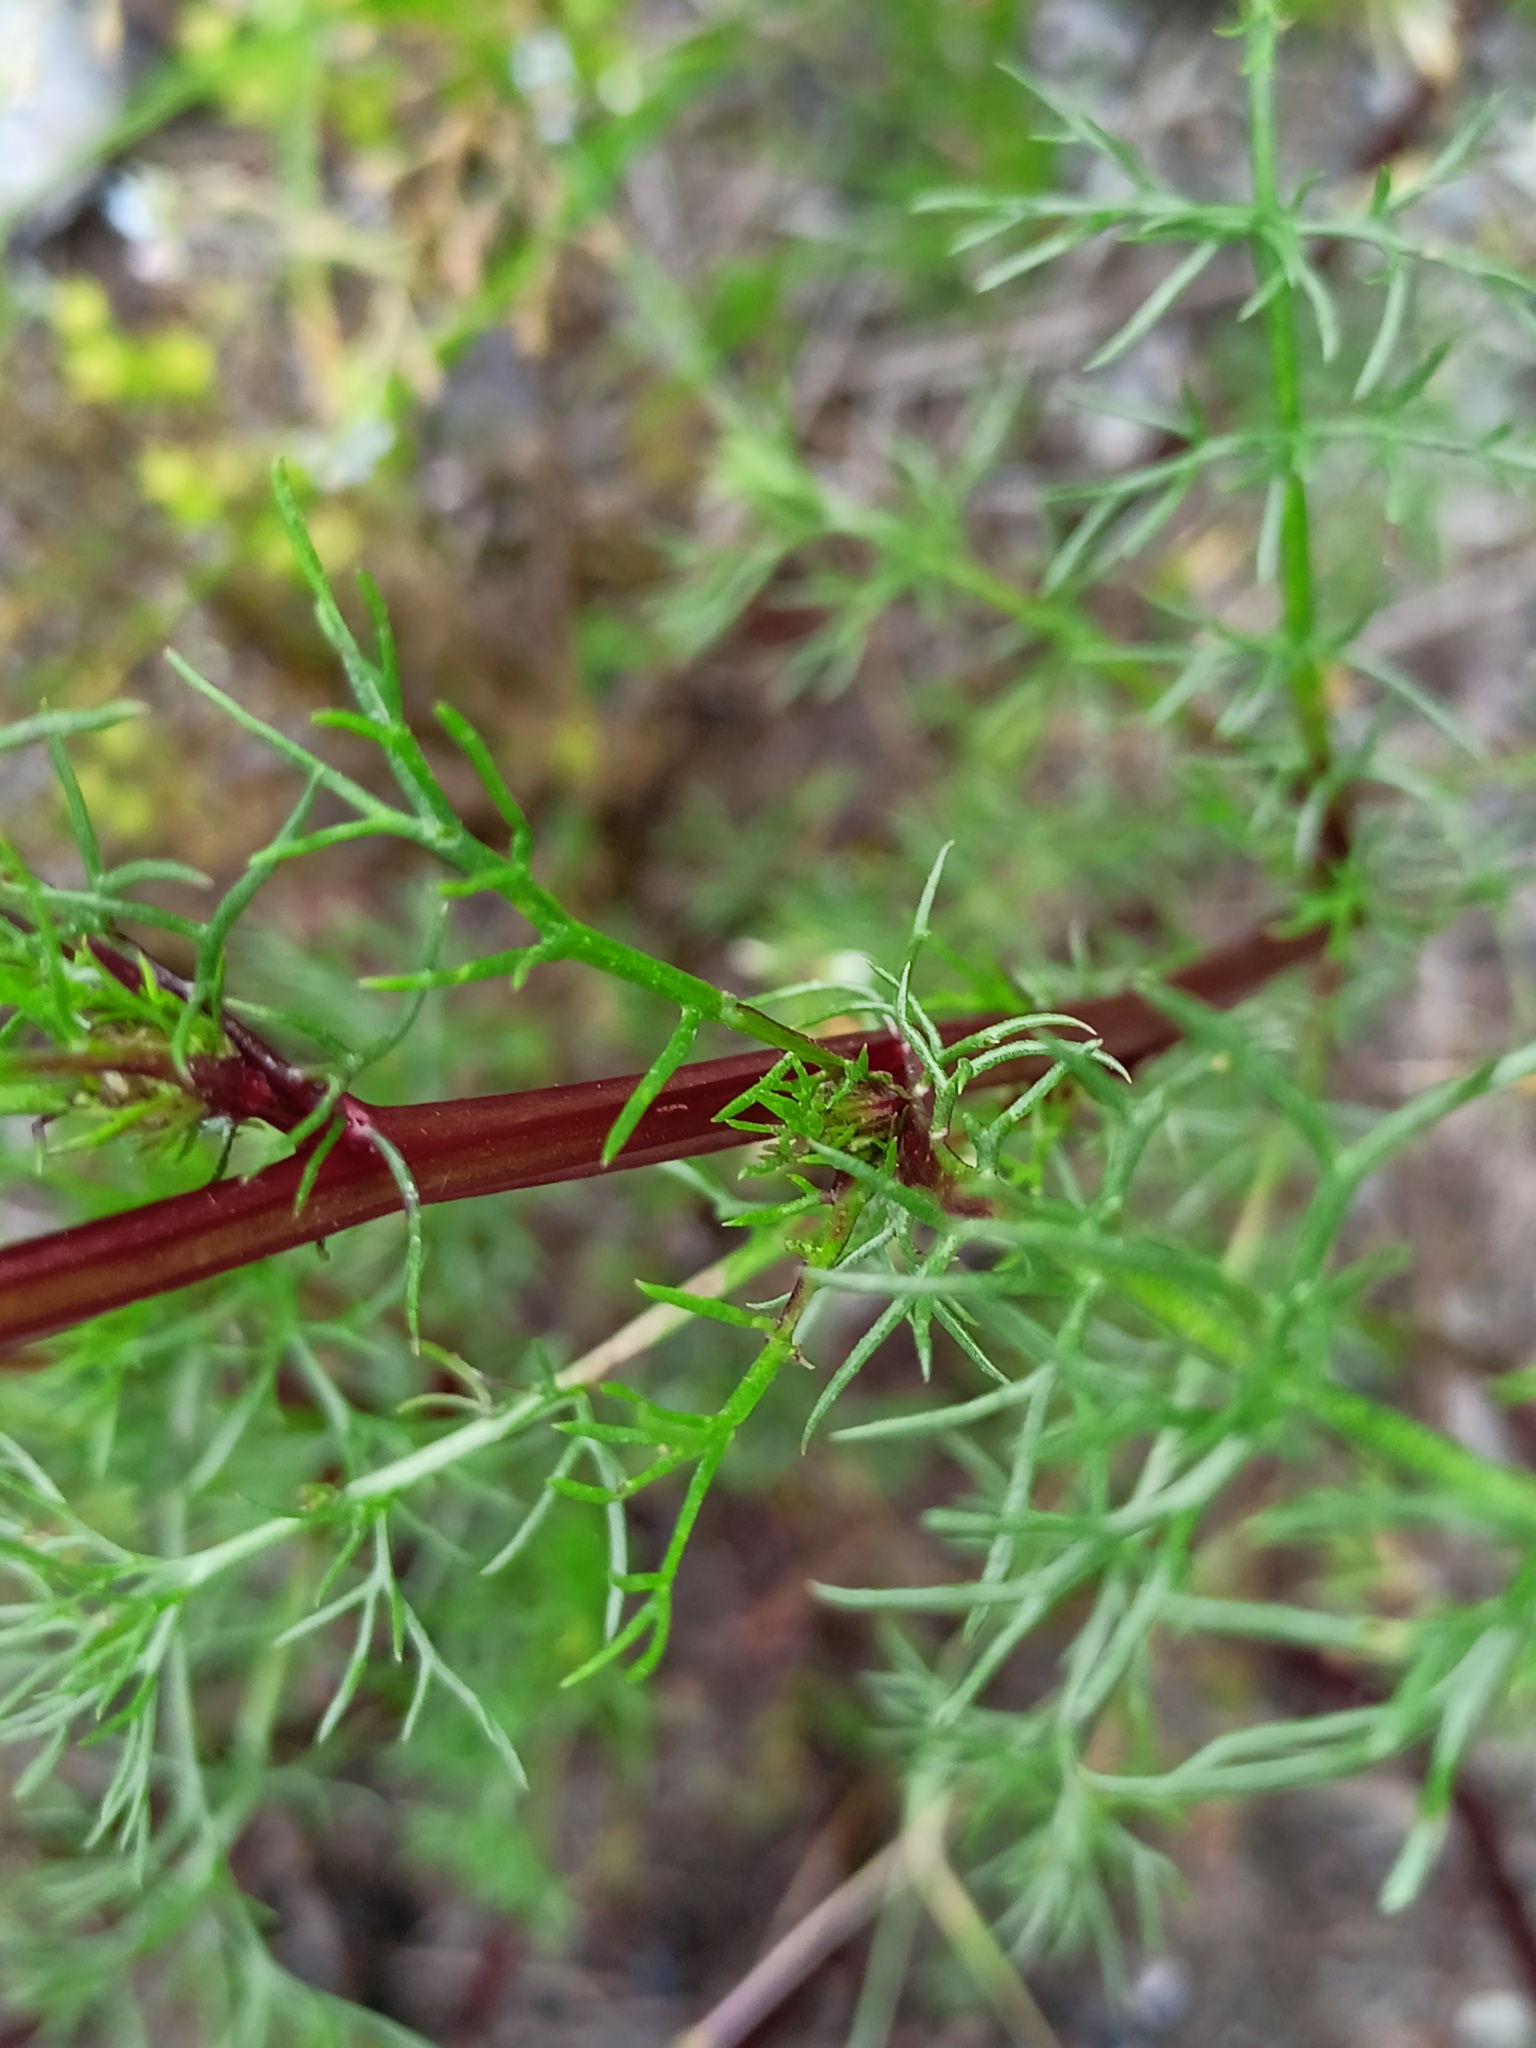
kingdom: Plantae
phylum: Tracheophyta
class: Magnoliopsida
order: Asterales
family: Asteraceae
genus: Tripleurospermum
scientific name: Tripleurospermum inodorum
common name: Scentless mayweed
